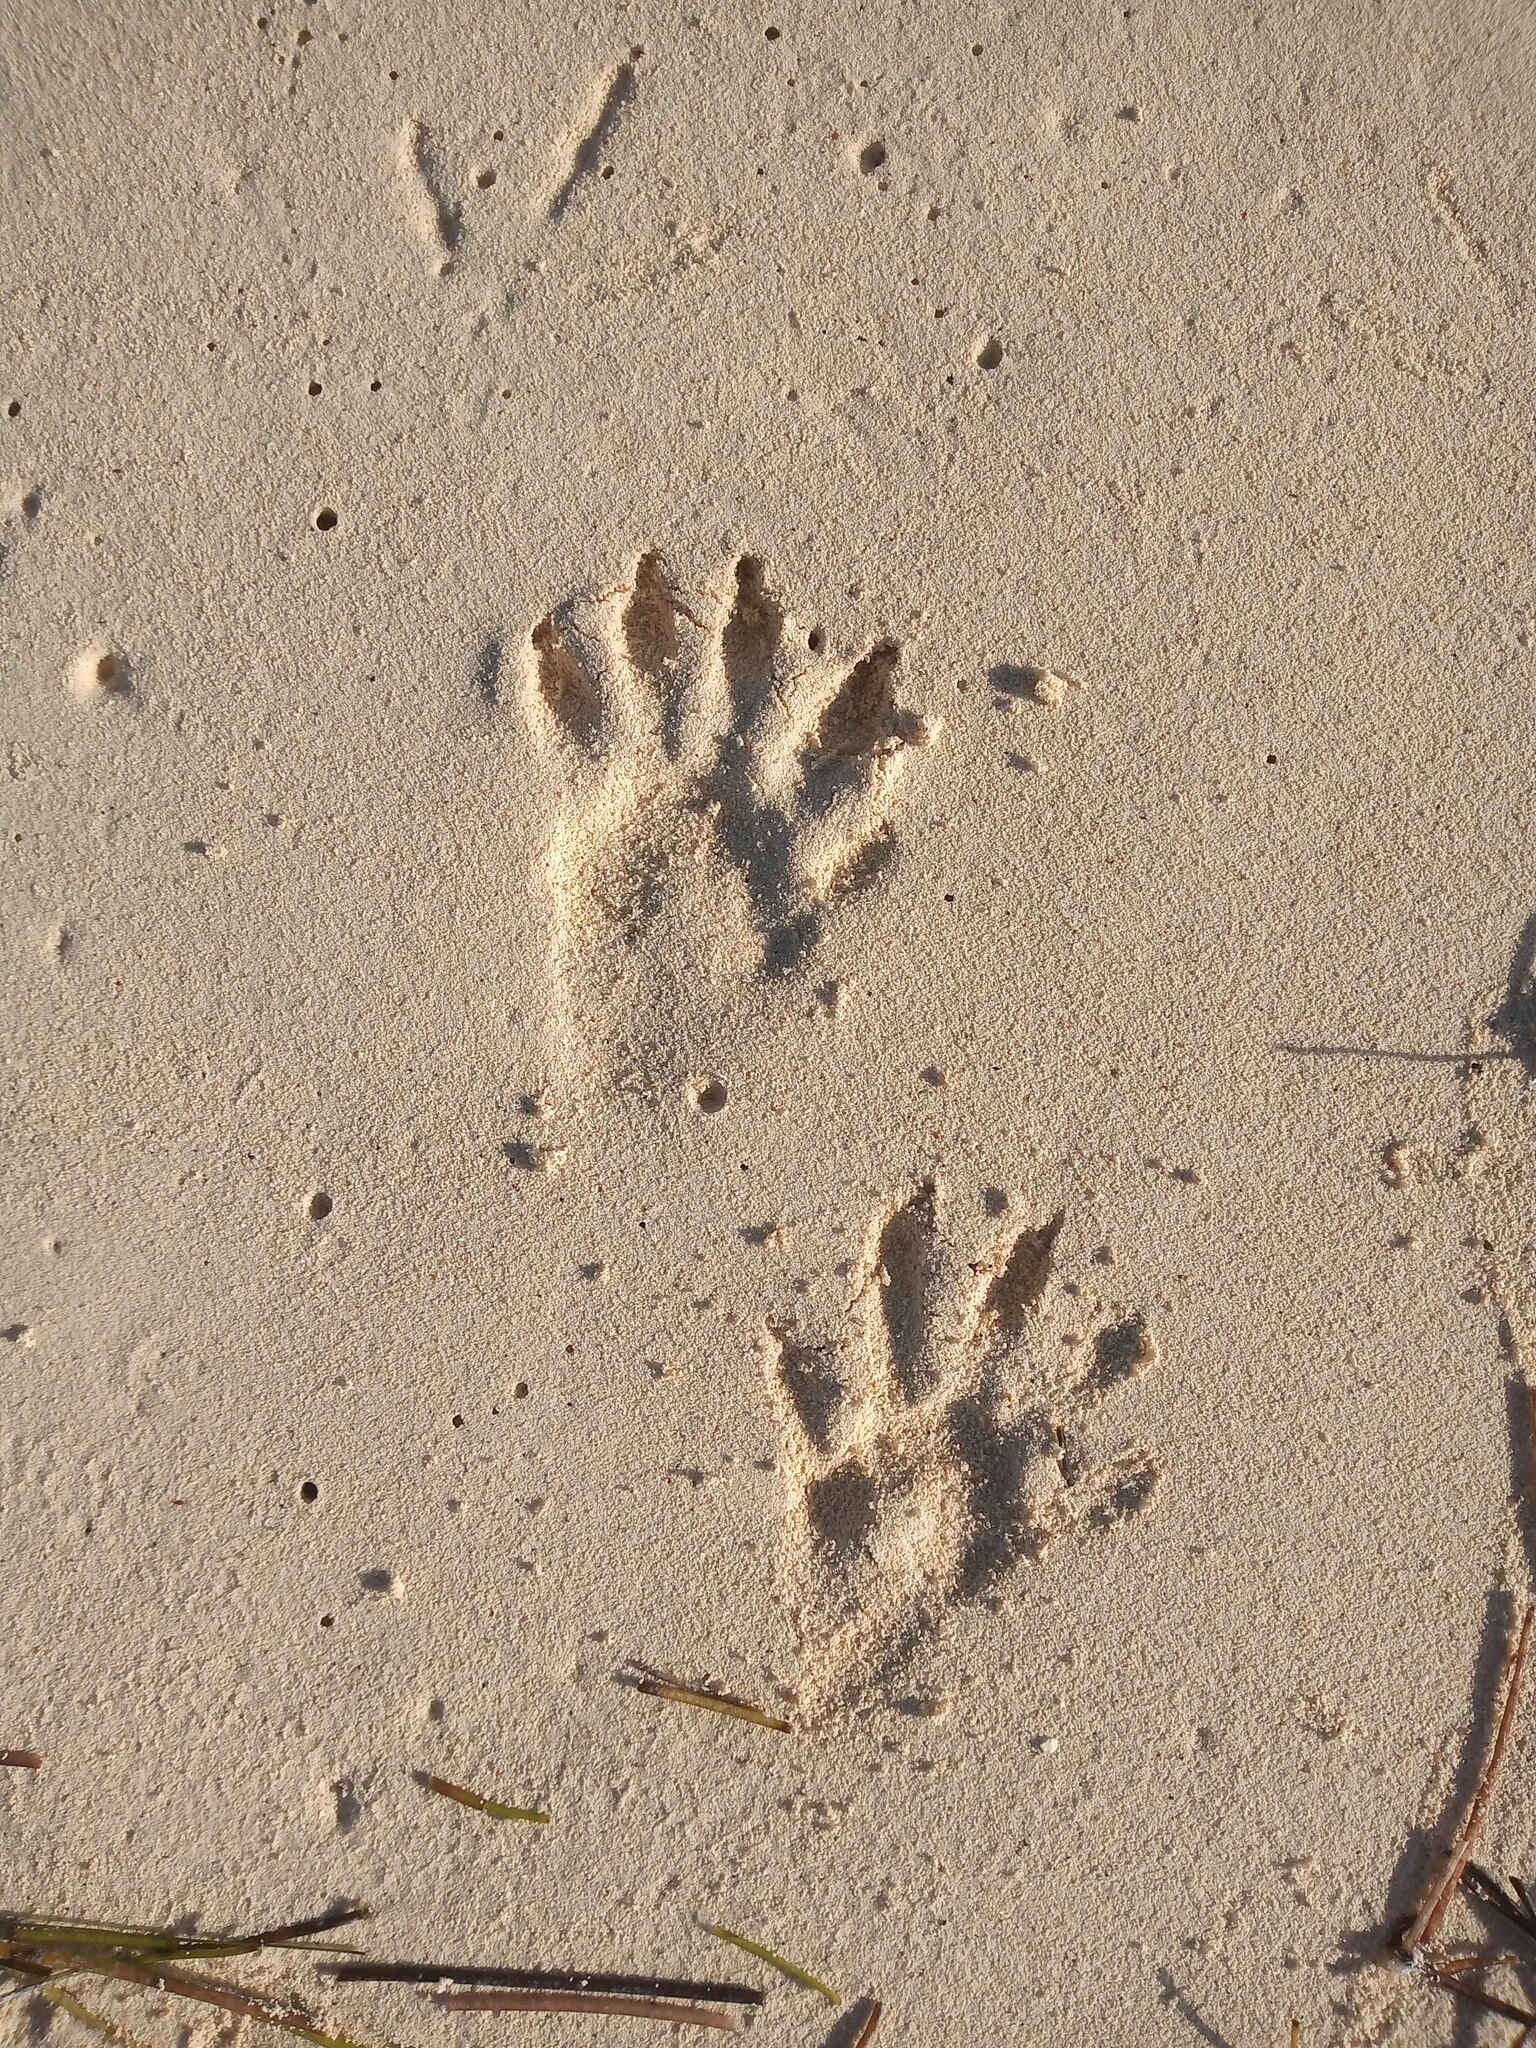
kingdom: Animalia
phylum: Chordata
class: Mammalia
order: Carnivora
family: Procyonidae
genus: Procyon
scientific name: Procyon lotor
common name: Raccoon
